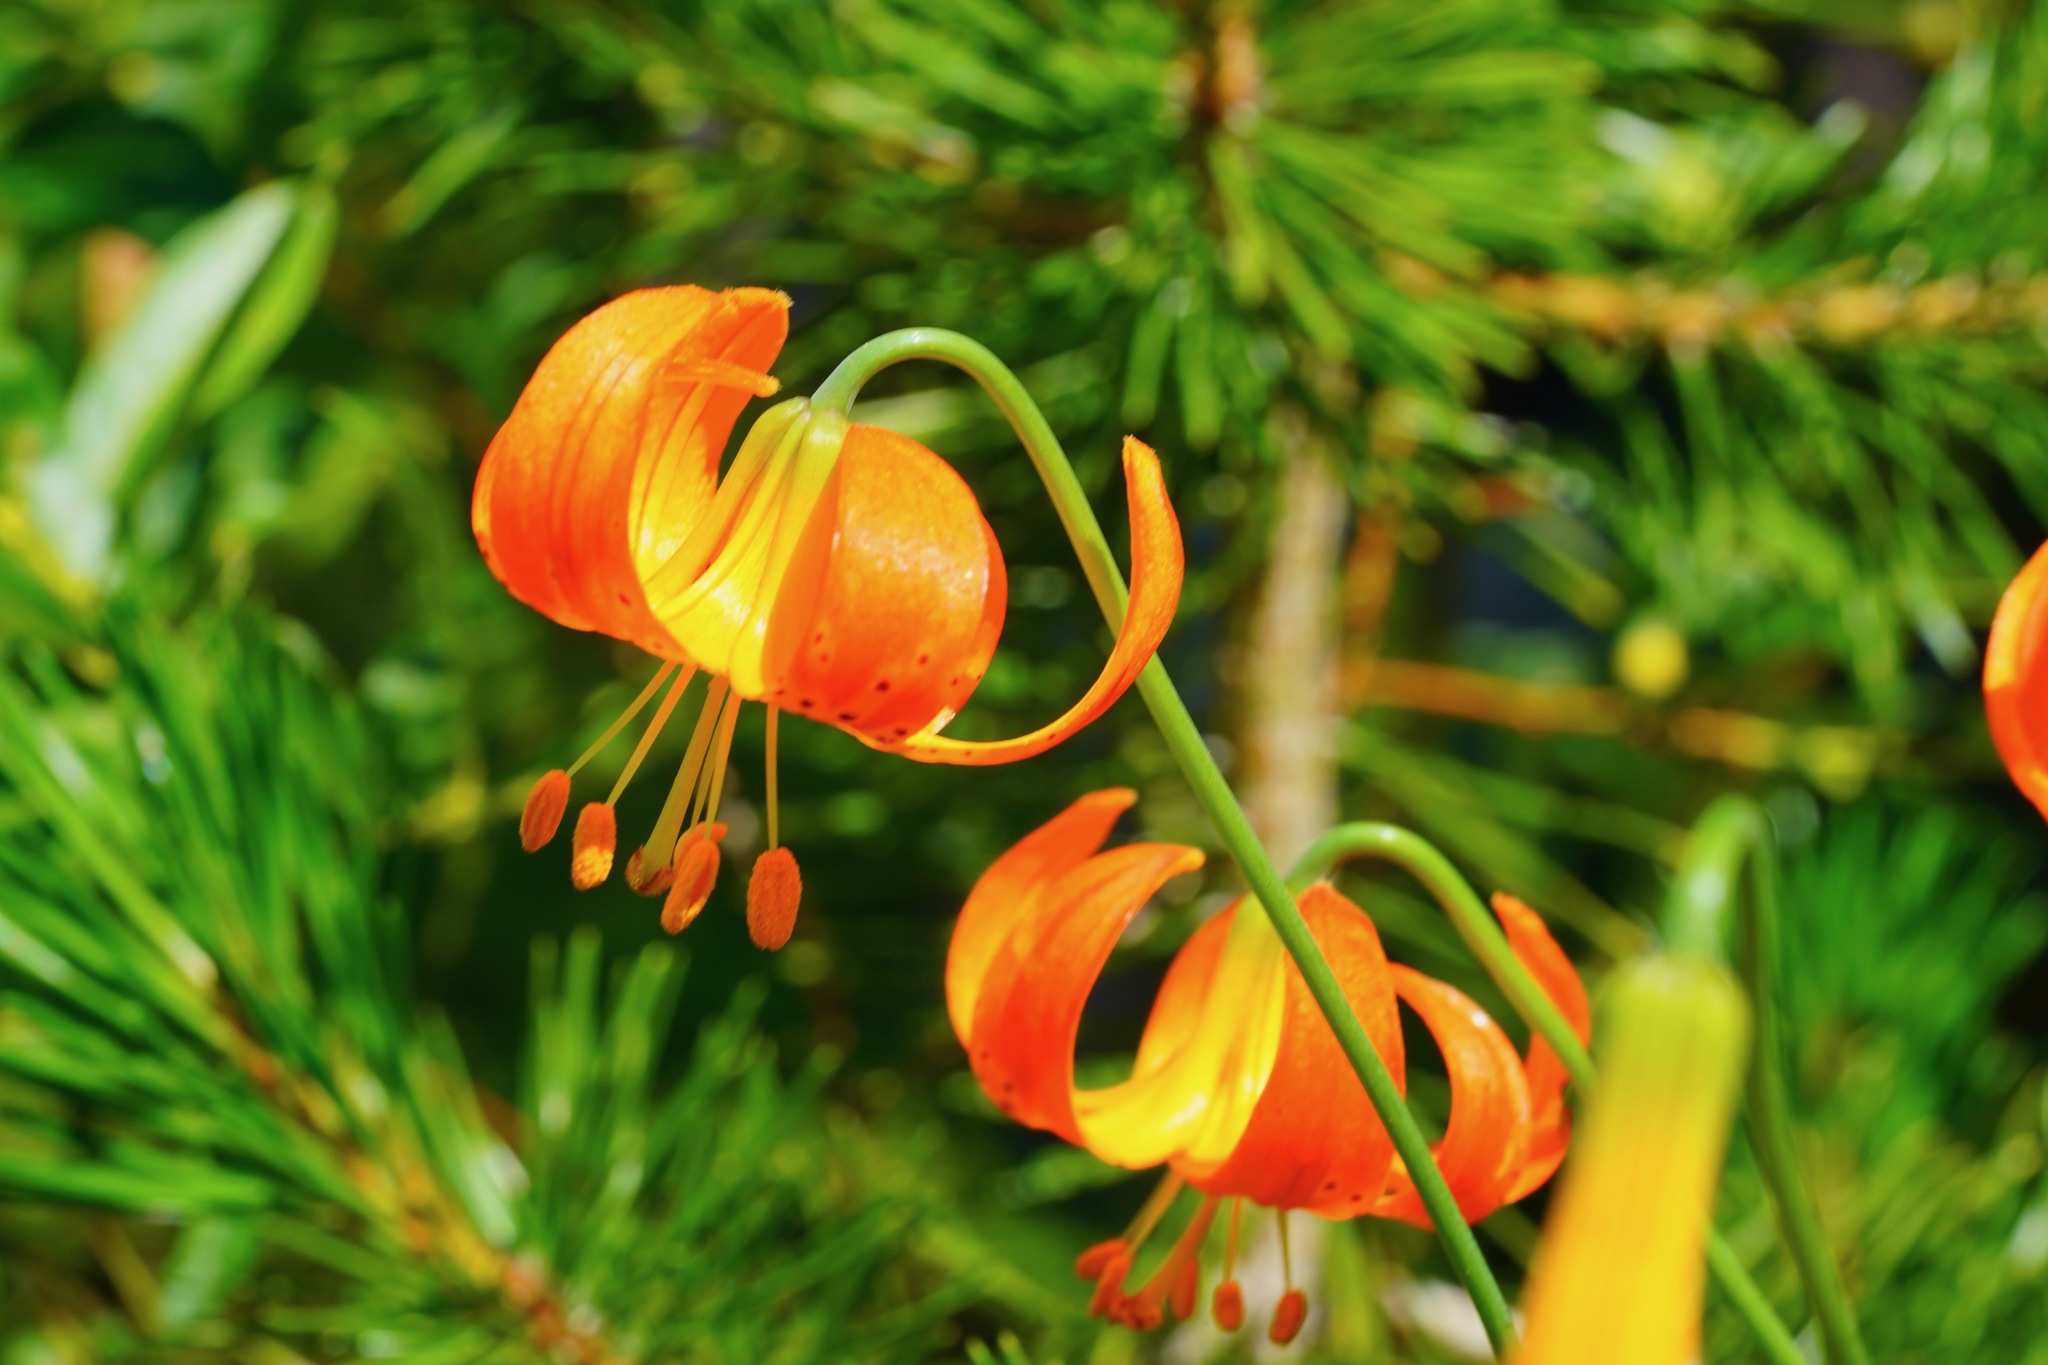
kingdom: Plantae
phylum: Tracheophyta
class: Liliopsida
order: Liliales
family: Liliaceae
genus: Lilium
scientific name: Lilium pardalinum
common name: Panther lily
